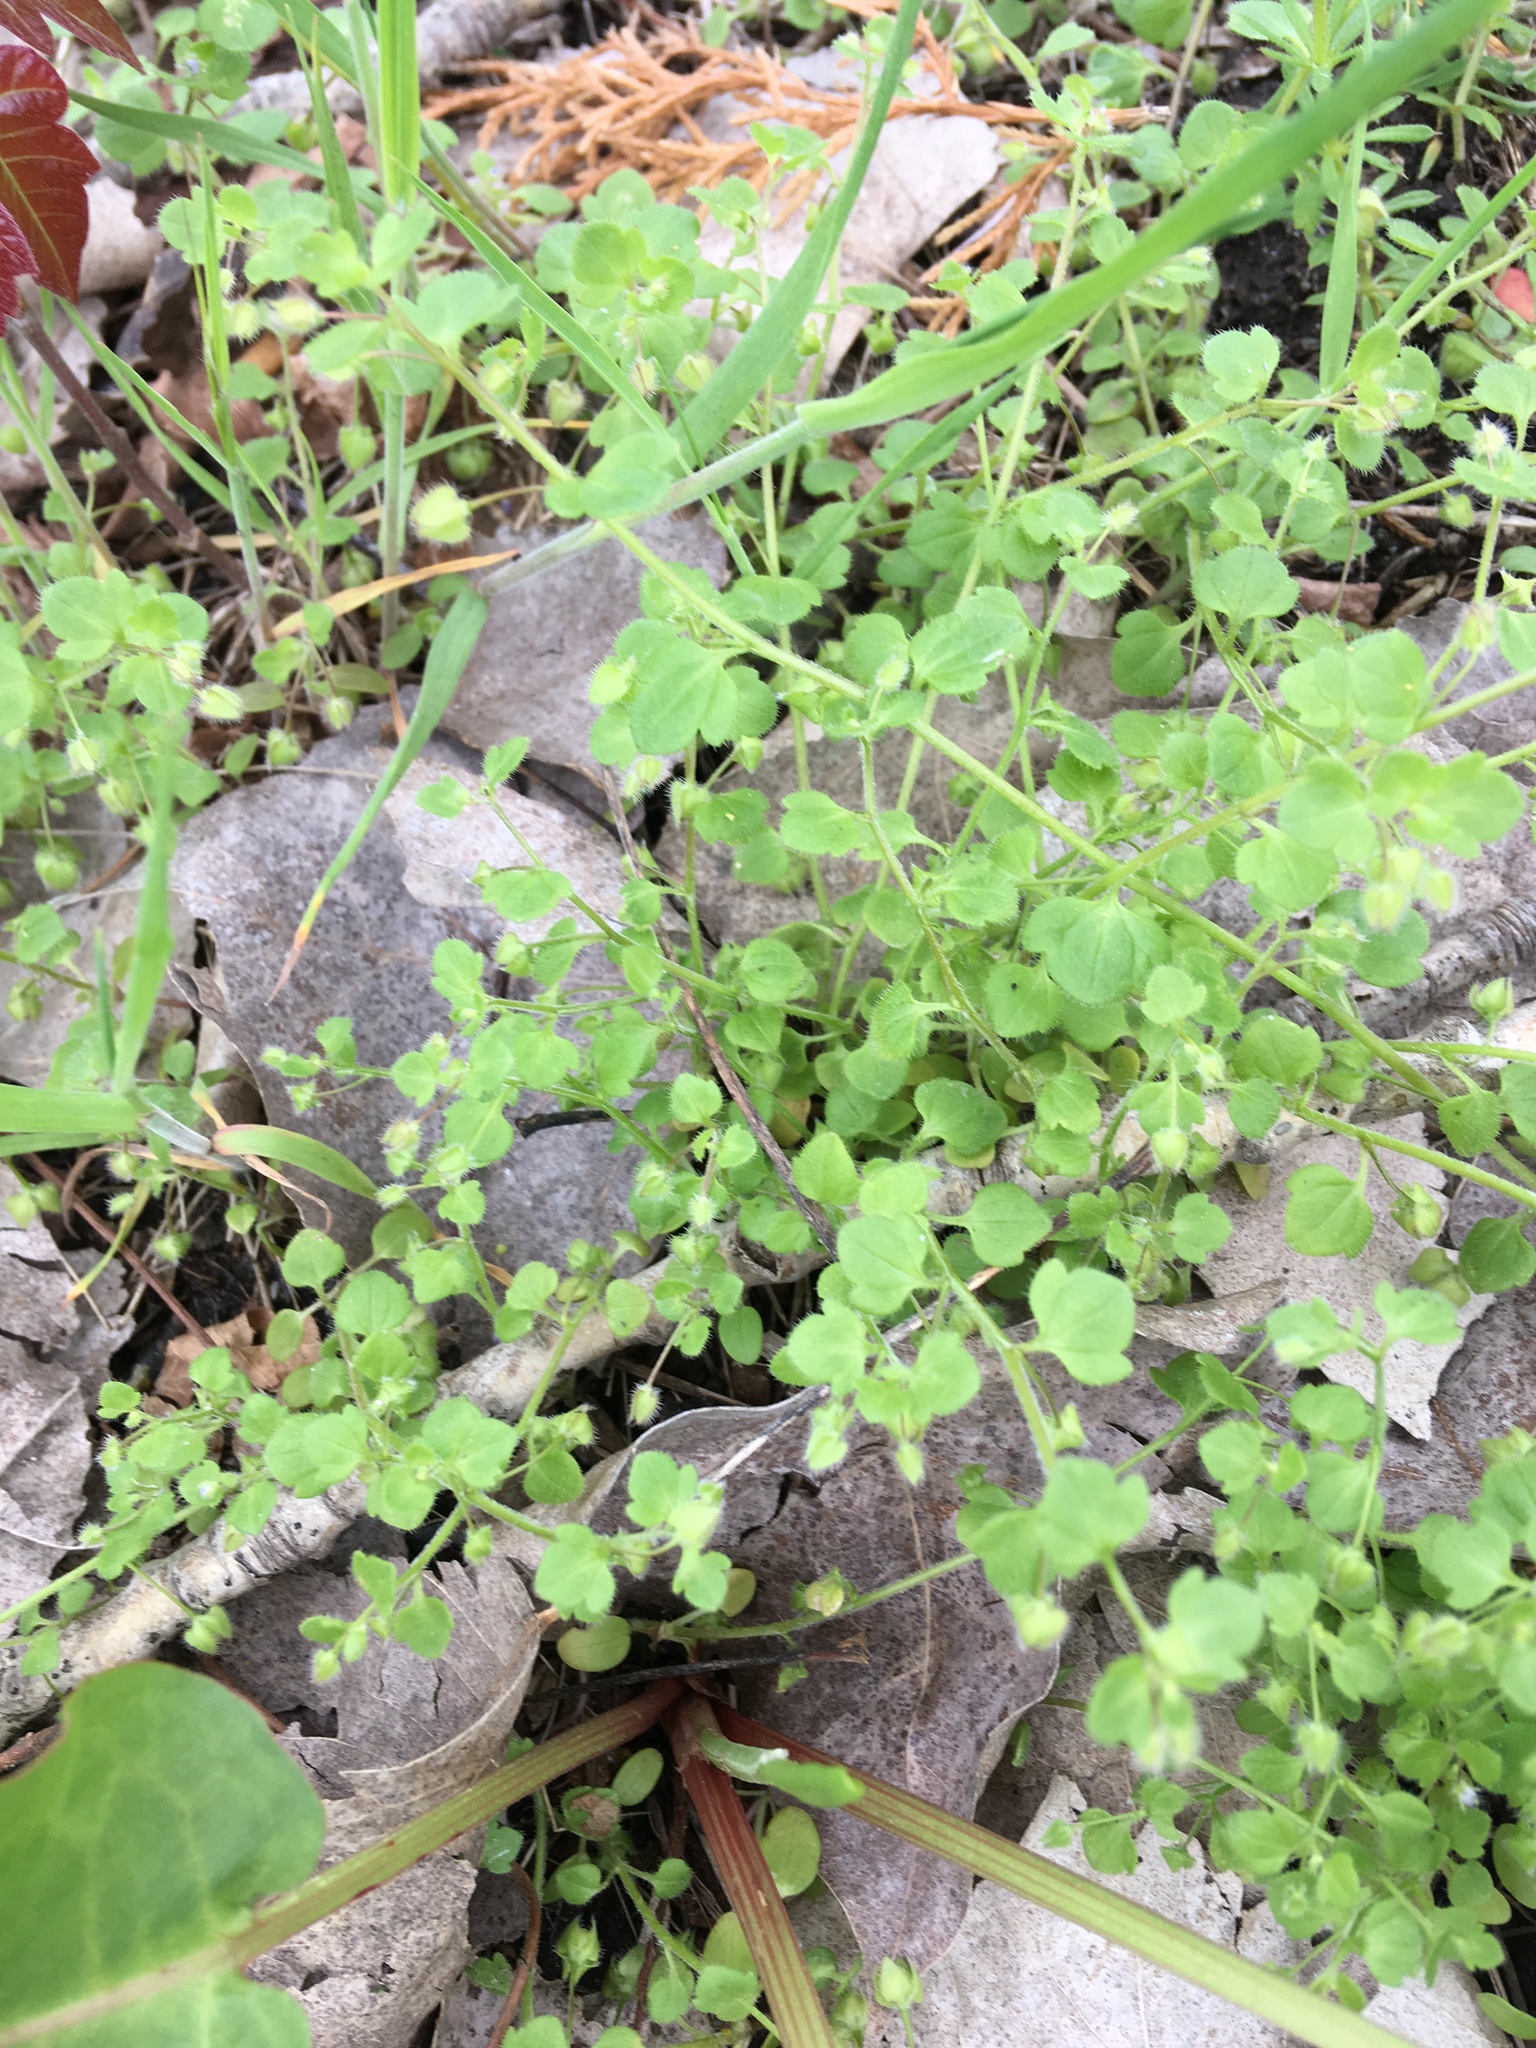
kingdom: Plantae
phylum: Tracheophyta
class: Magnoliopsida
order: Lamiales
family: Plantaginaceae
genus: Veronica
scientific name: Veronica hederifolia
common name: Ivy-leaved speedwell
